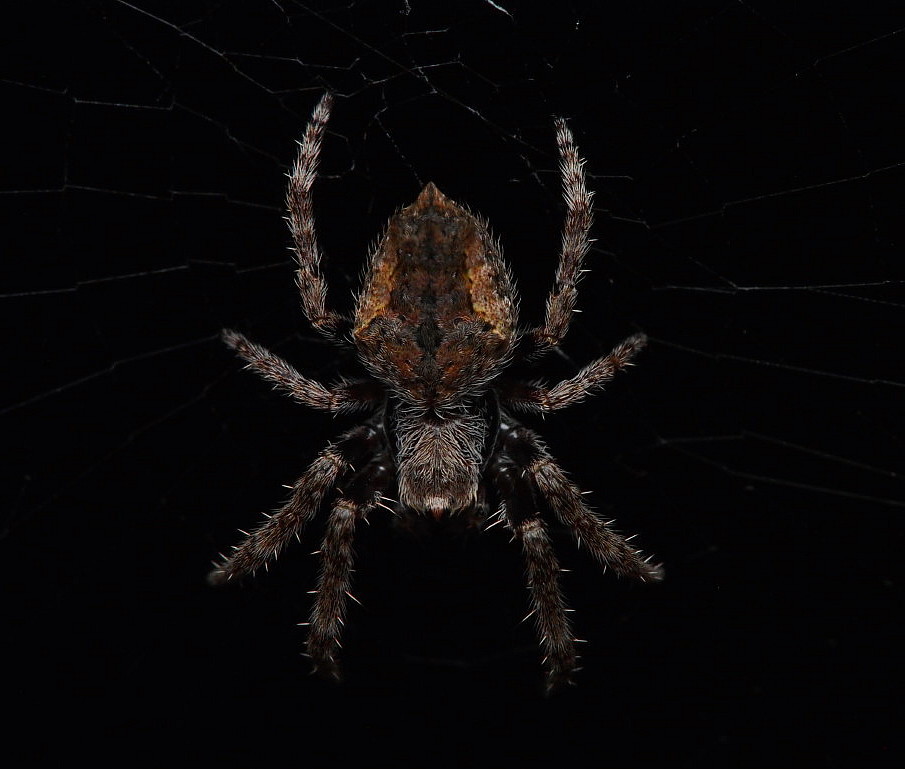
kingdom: Animalia
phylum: Arthropoda
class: Arachnida
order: Araneae
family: Araneidae
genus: Eriophora
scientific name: Eriophora pustulosa
